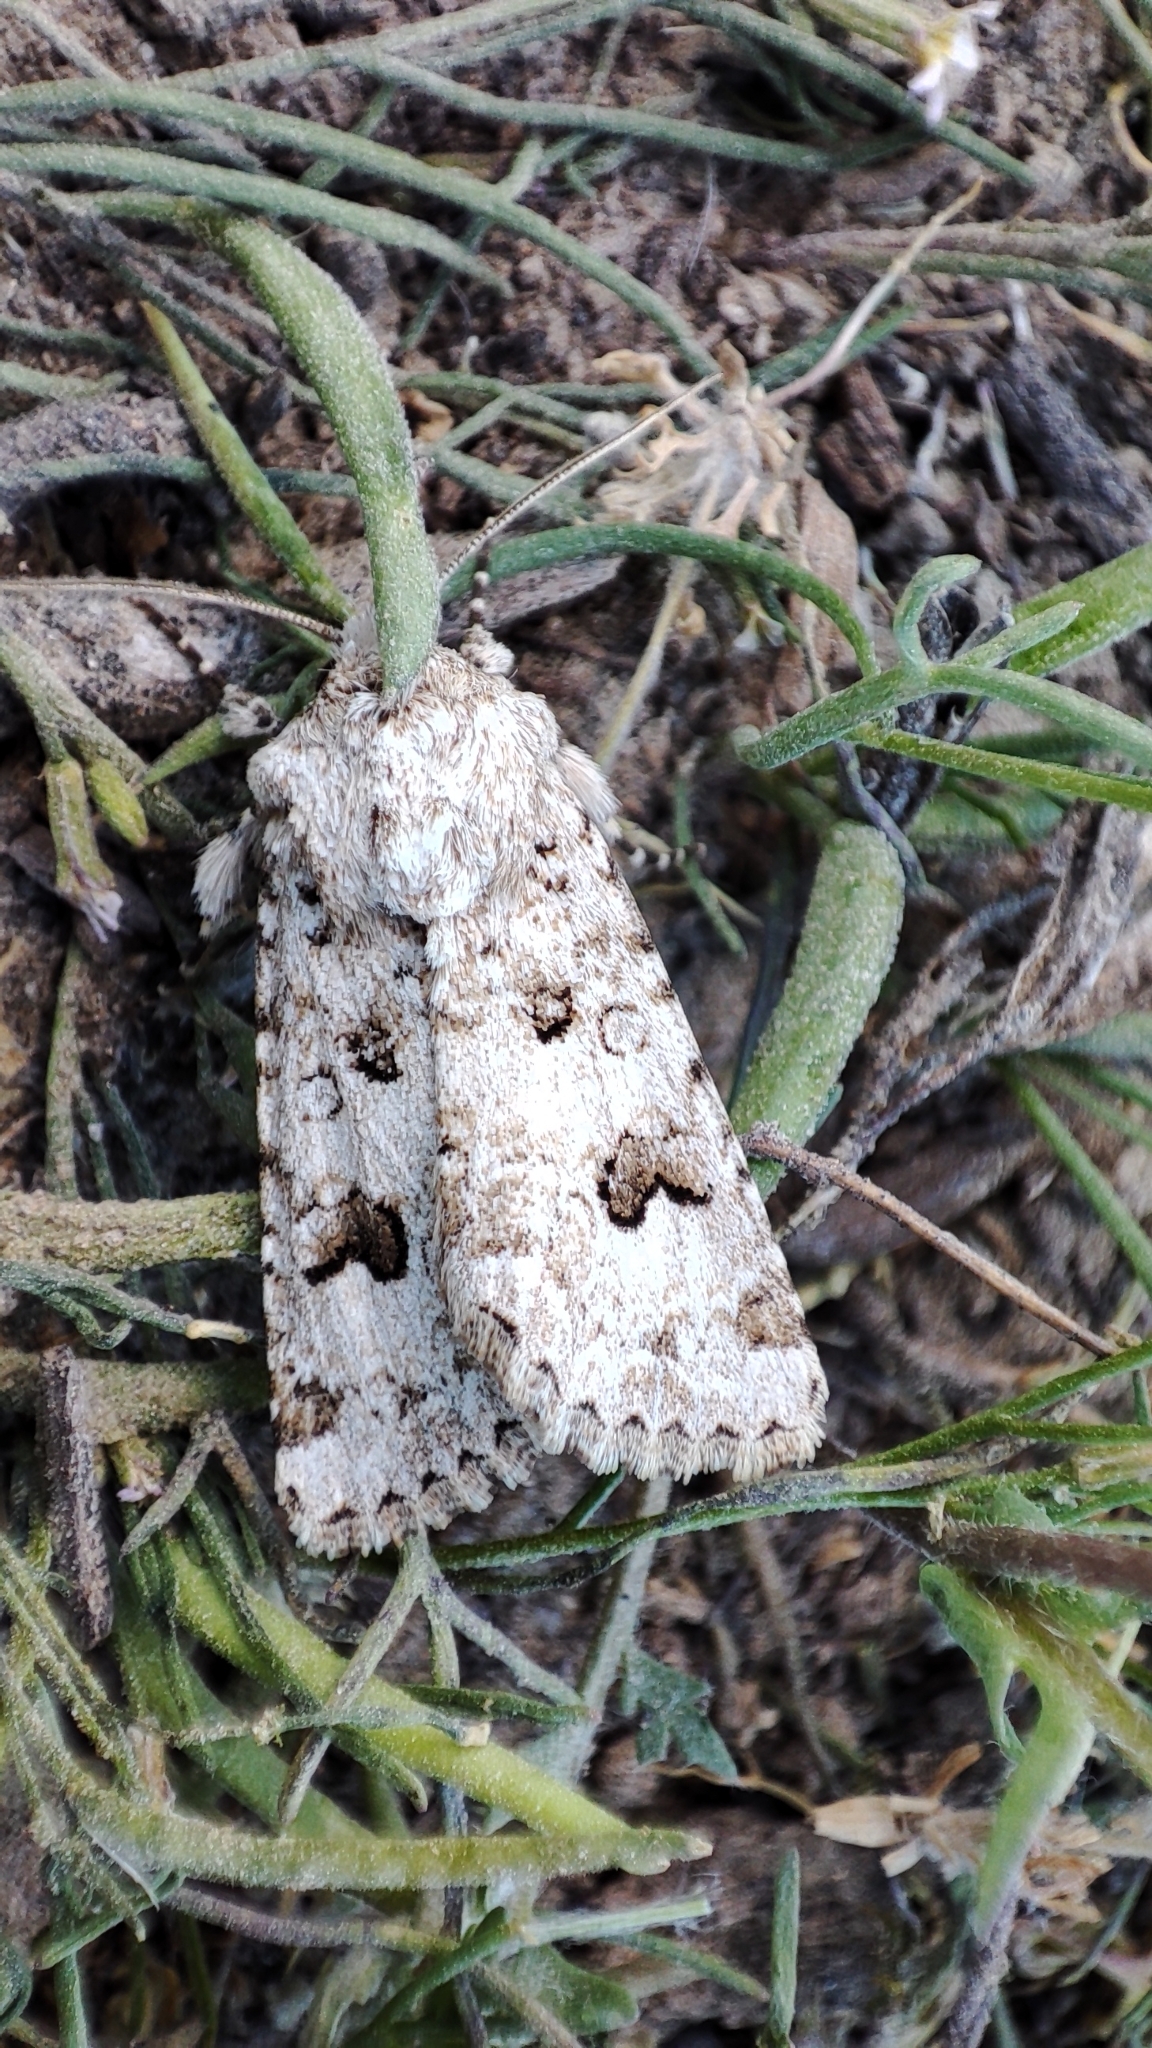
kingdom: Animalia
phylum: Arthropoda
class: Insecta
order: Lepidoptera
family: Noctuidae
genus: Anarta
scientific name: Anarta stigmosa
